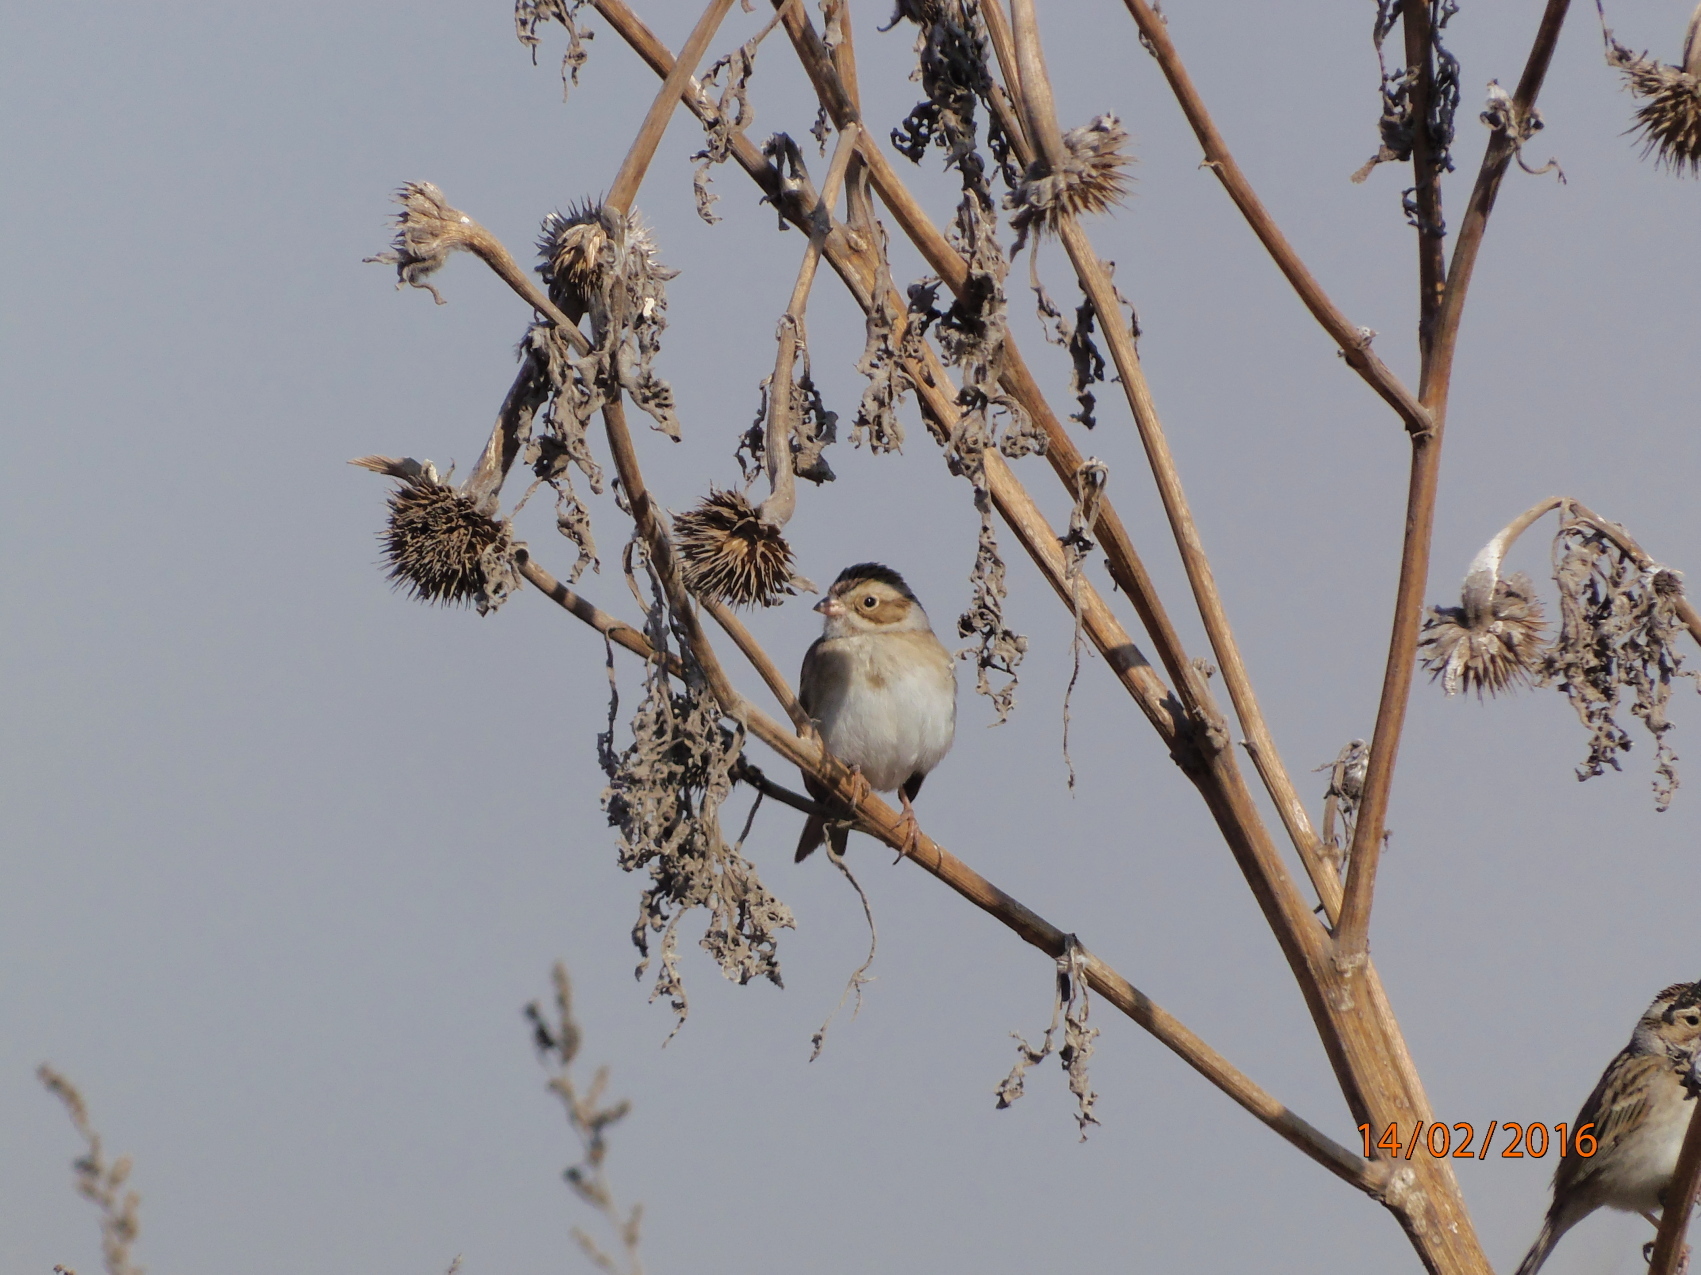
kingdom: Animalia
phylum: Chordata
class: Aves
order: Passeriformes
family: Passerellidae
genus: Spizella
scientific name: Spizella pallida
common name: Clay-colored sparrow
